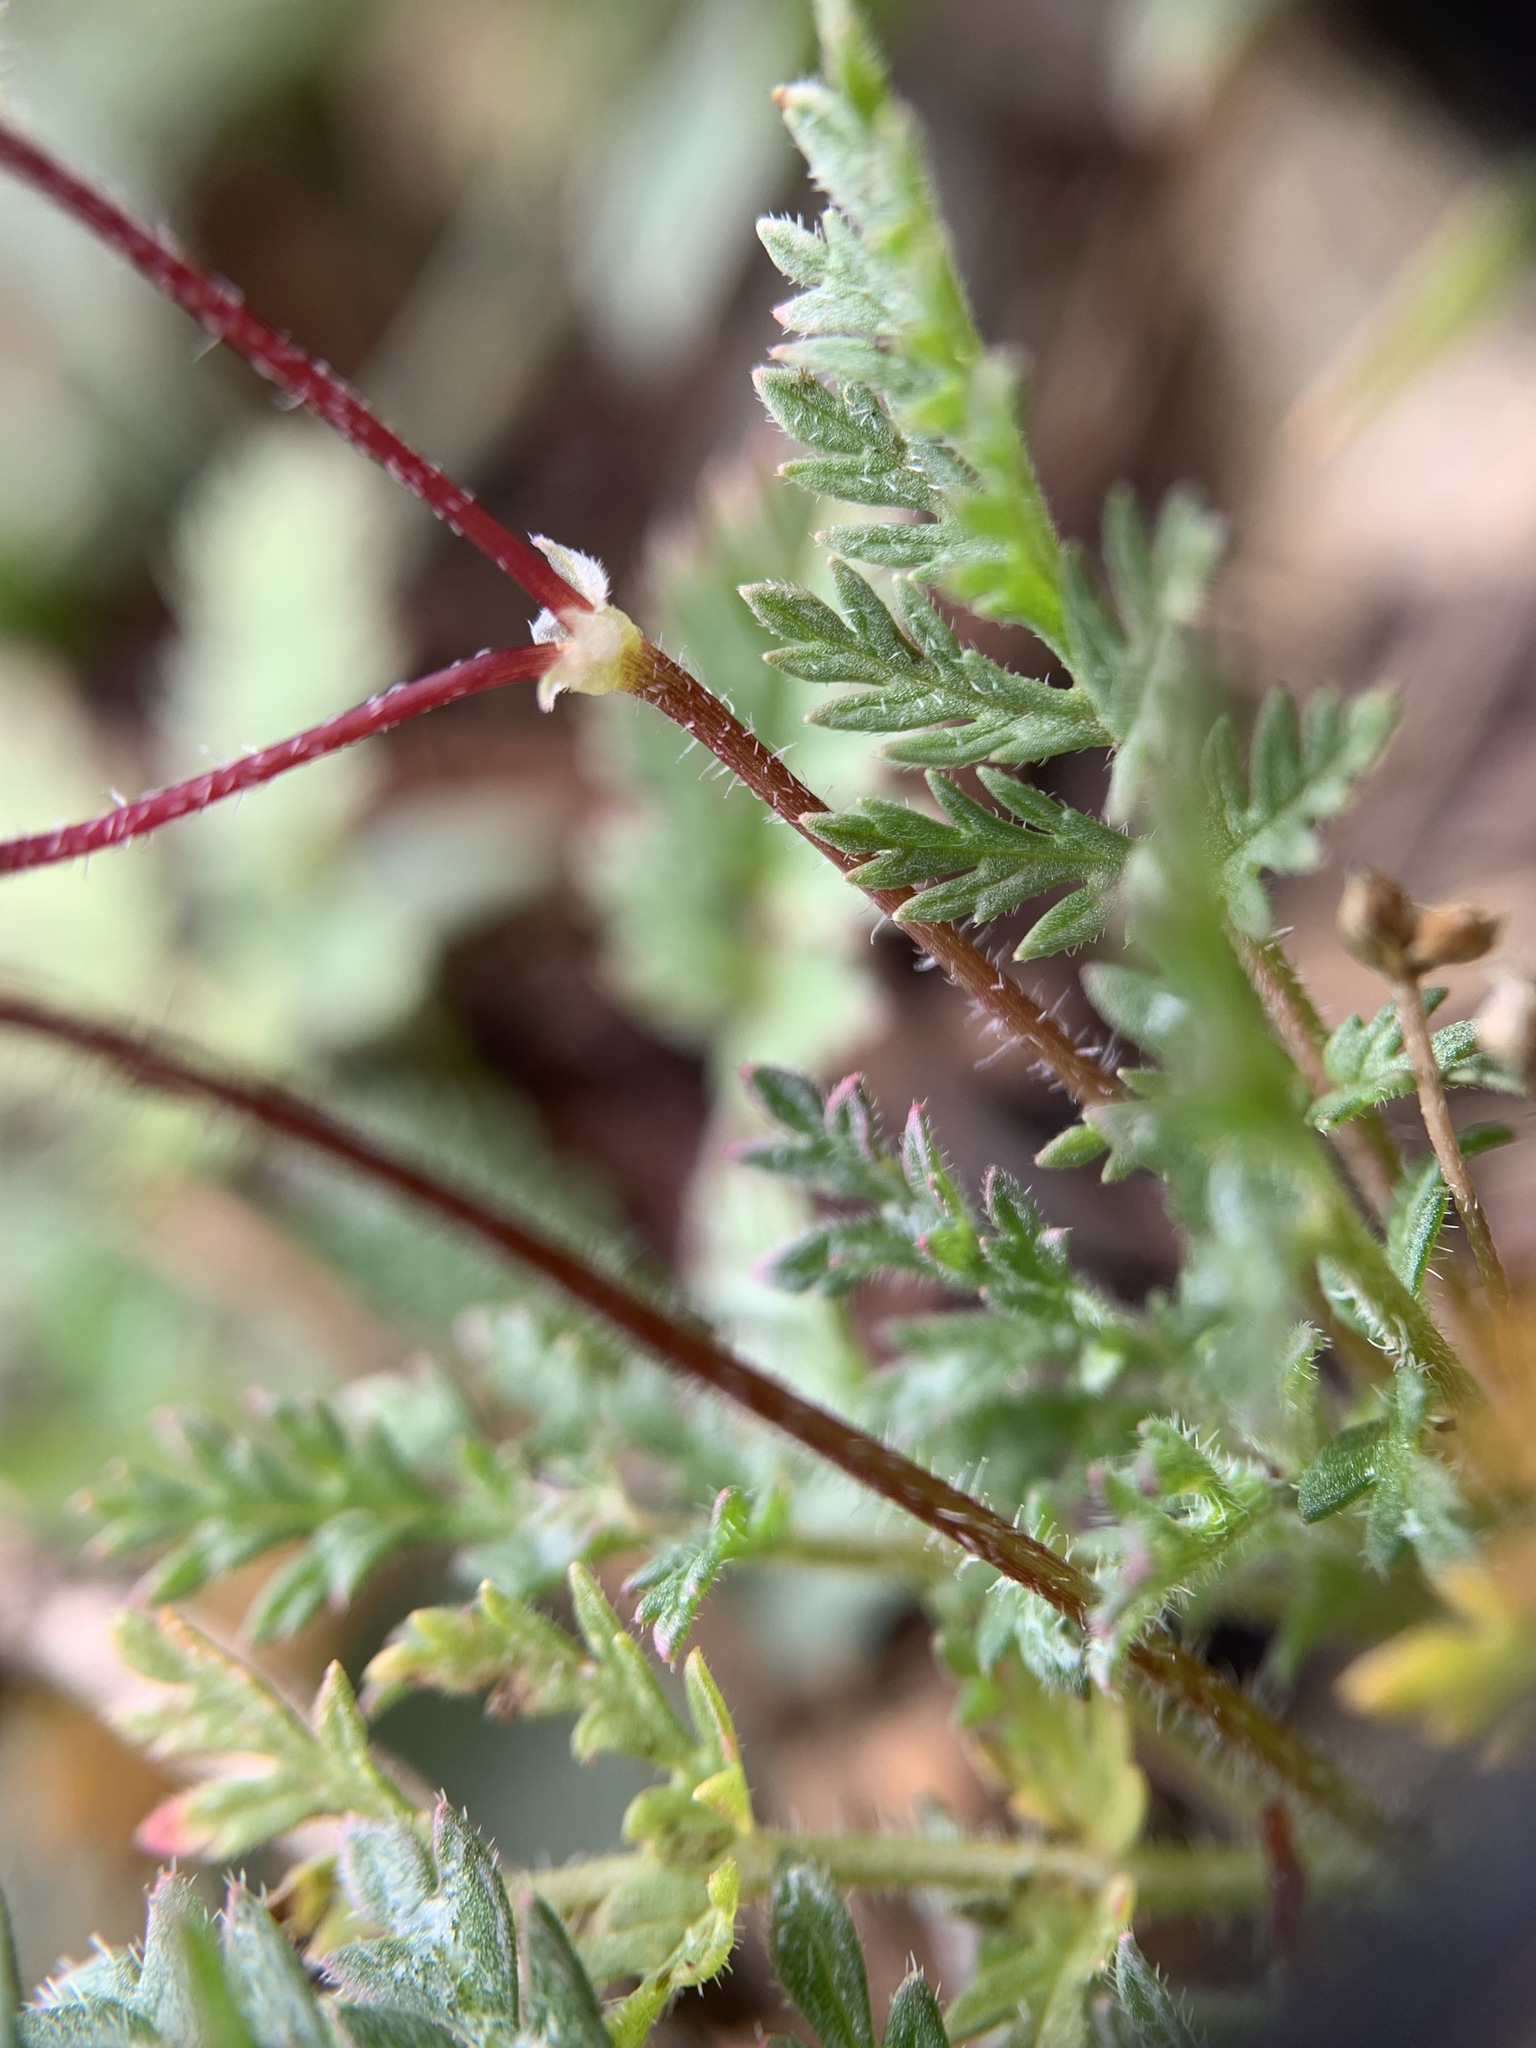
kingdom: Plantae
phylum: Tracheophyta
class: Magnoliopsida
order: Geraniales
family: Geraniaceae
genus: Erodium
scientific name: Erodium cicutarium
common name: Common stork's-bill
